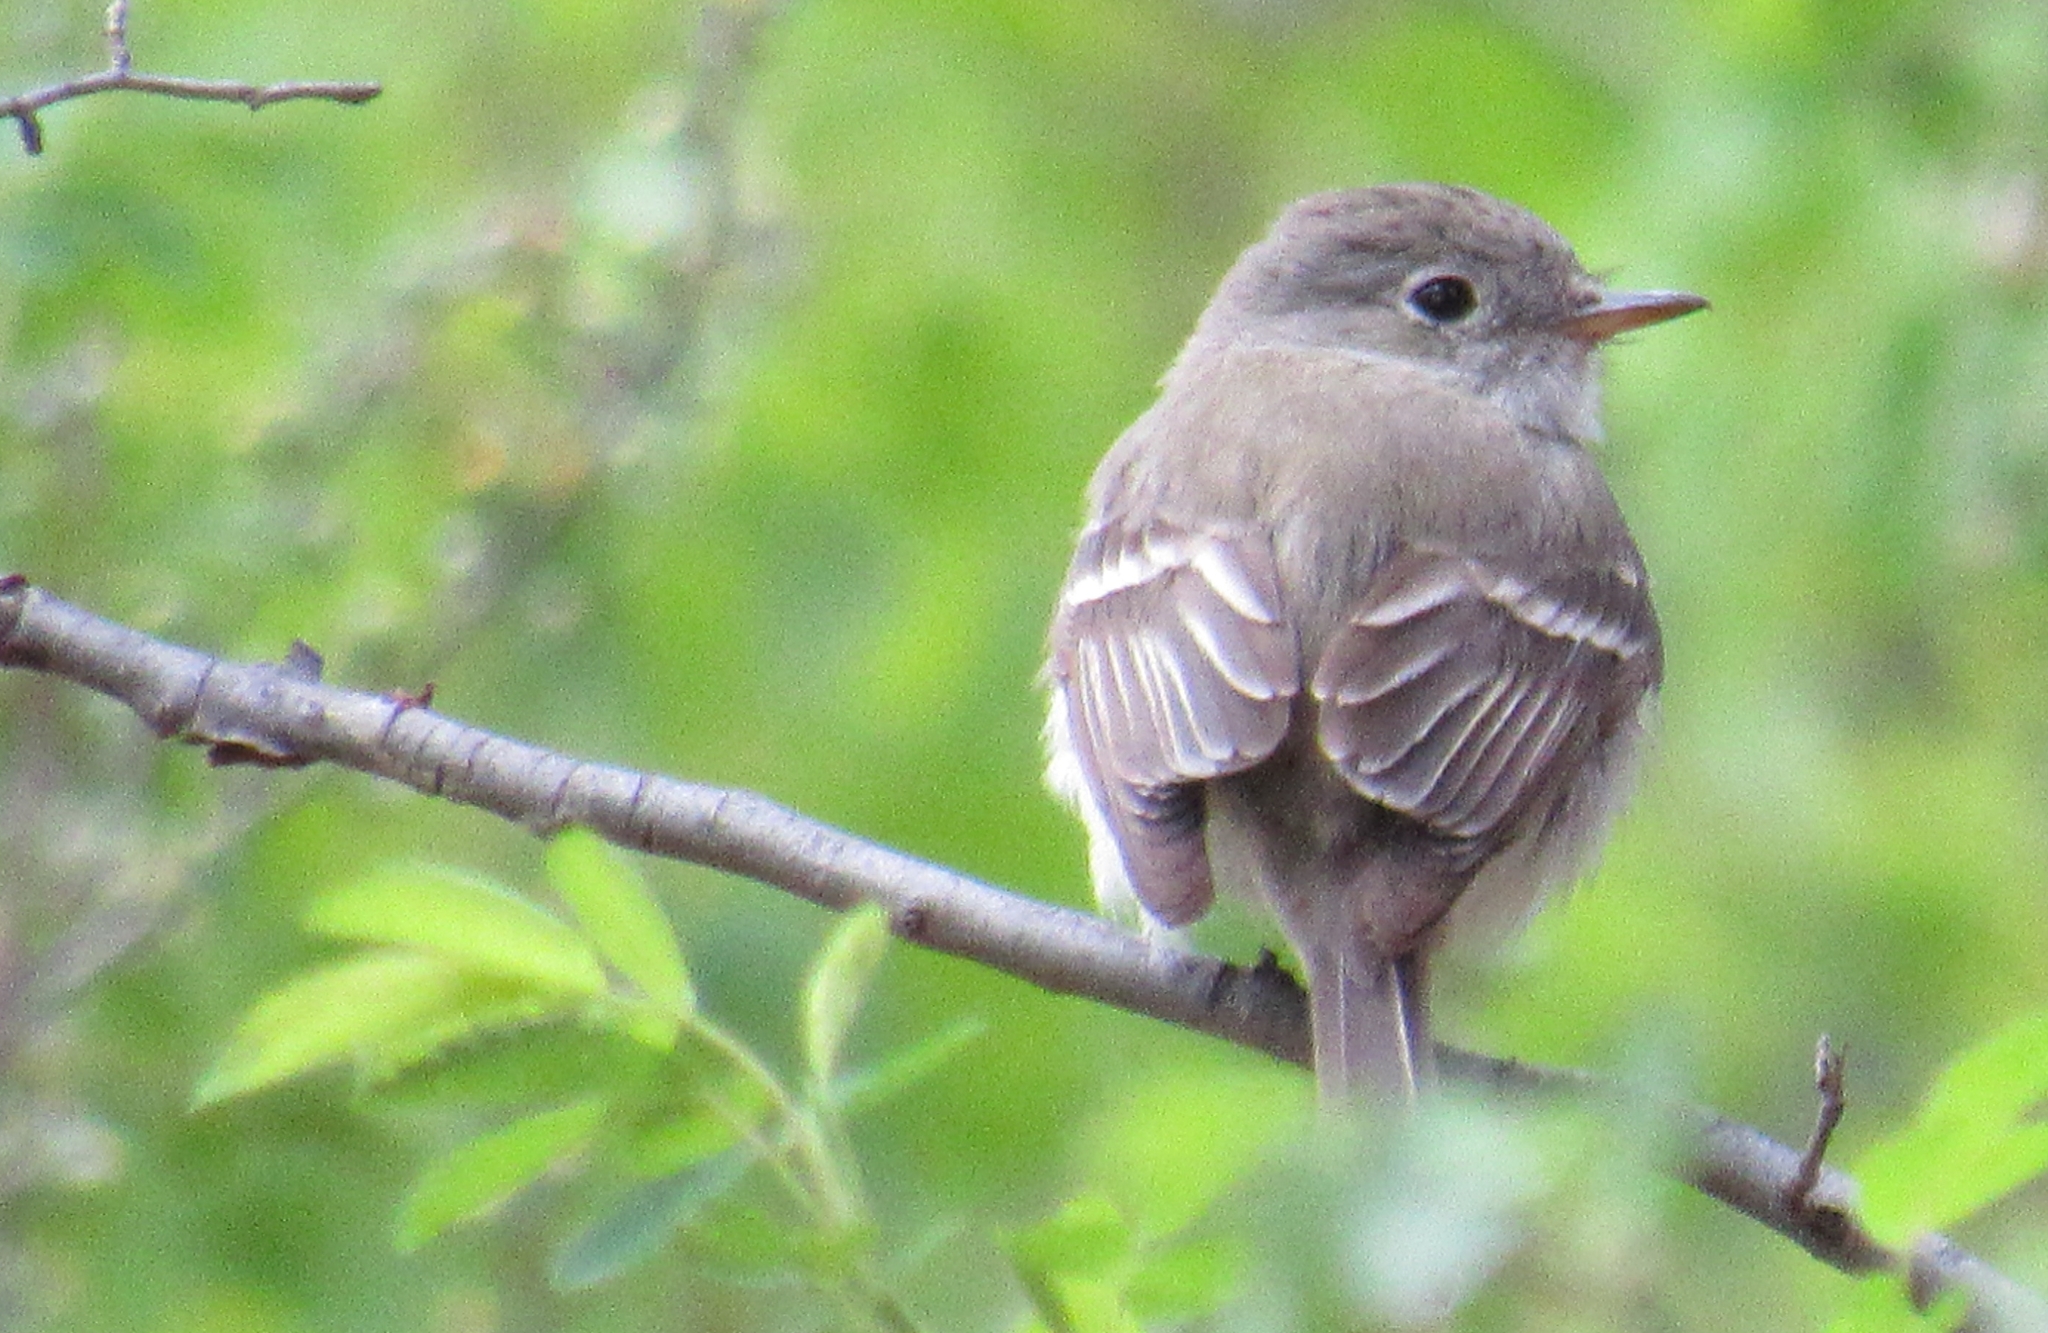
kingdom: Animalia
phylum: Chordata
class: Aves
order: Passeriformes
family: Tyrannidae
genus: Empidonax
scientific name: Empidonax wrightii
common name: Gray flycatcher
